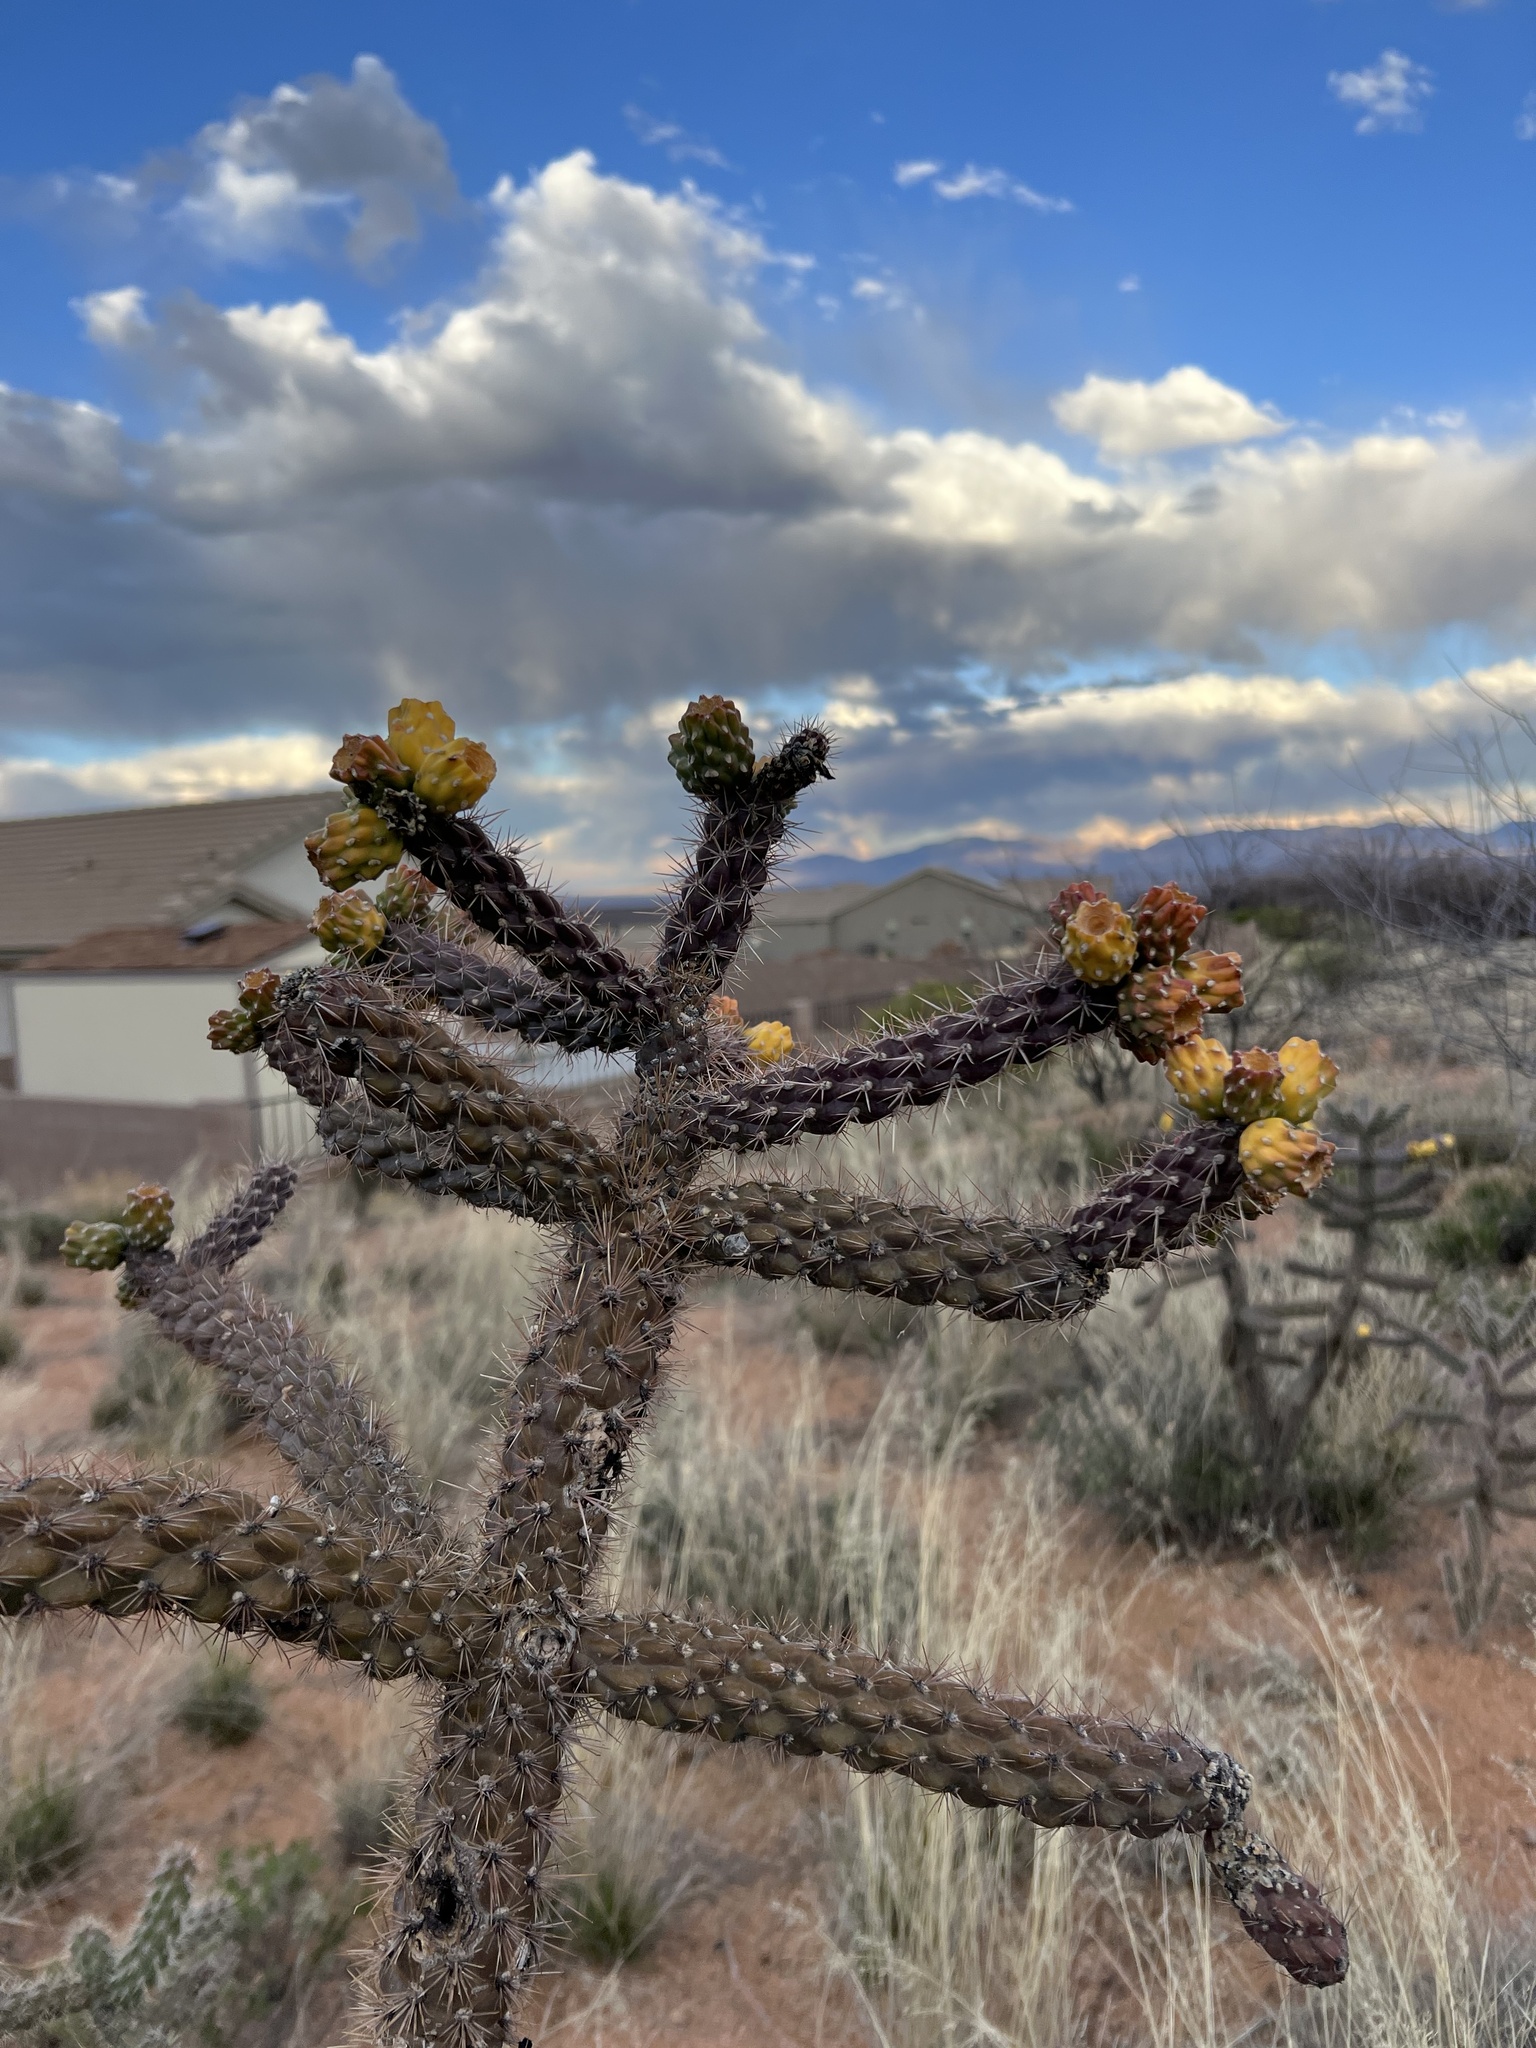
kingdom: Plantae
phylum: Tracheophyta
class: Magnoliopsida
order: Caryophyllales
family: Cactaceae
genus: Cylindropuntia
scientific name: Cylindropuntia imbricata
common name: Candelabrum cactus
